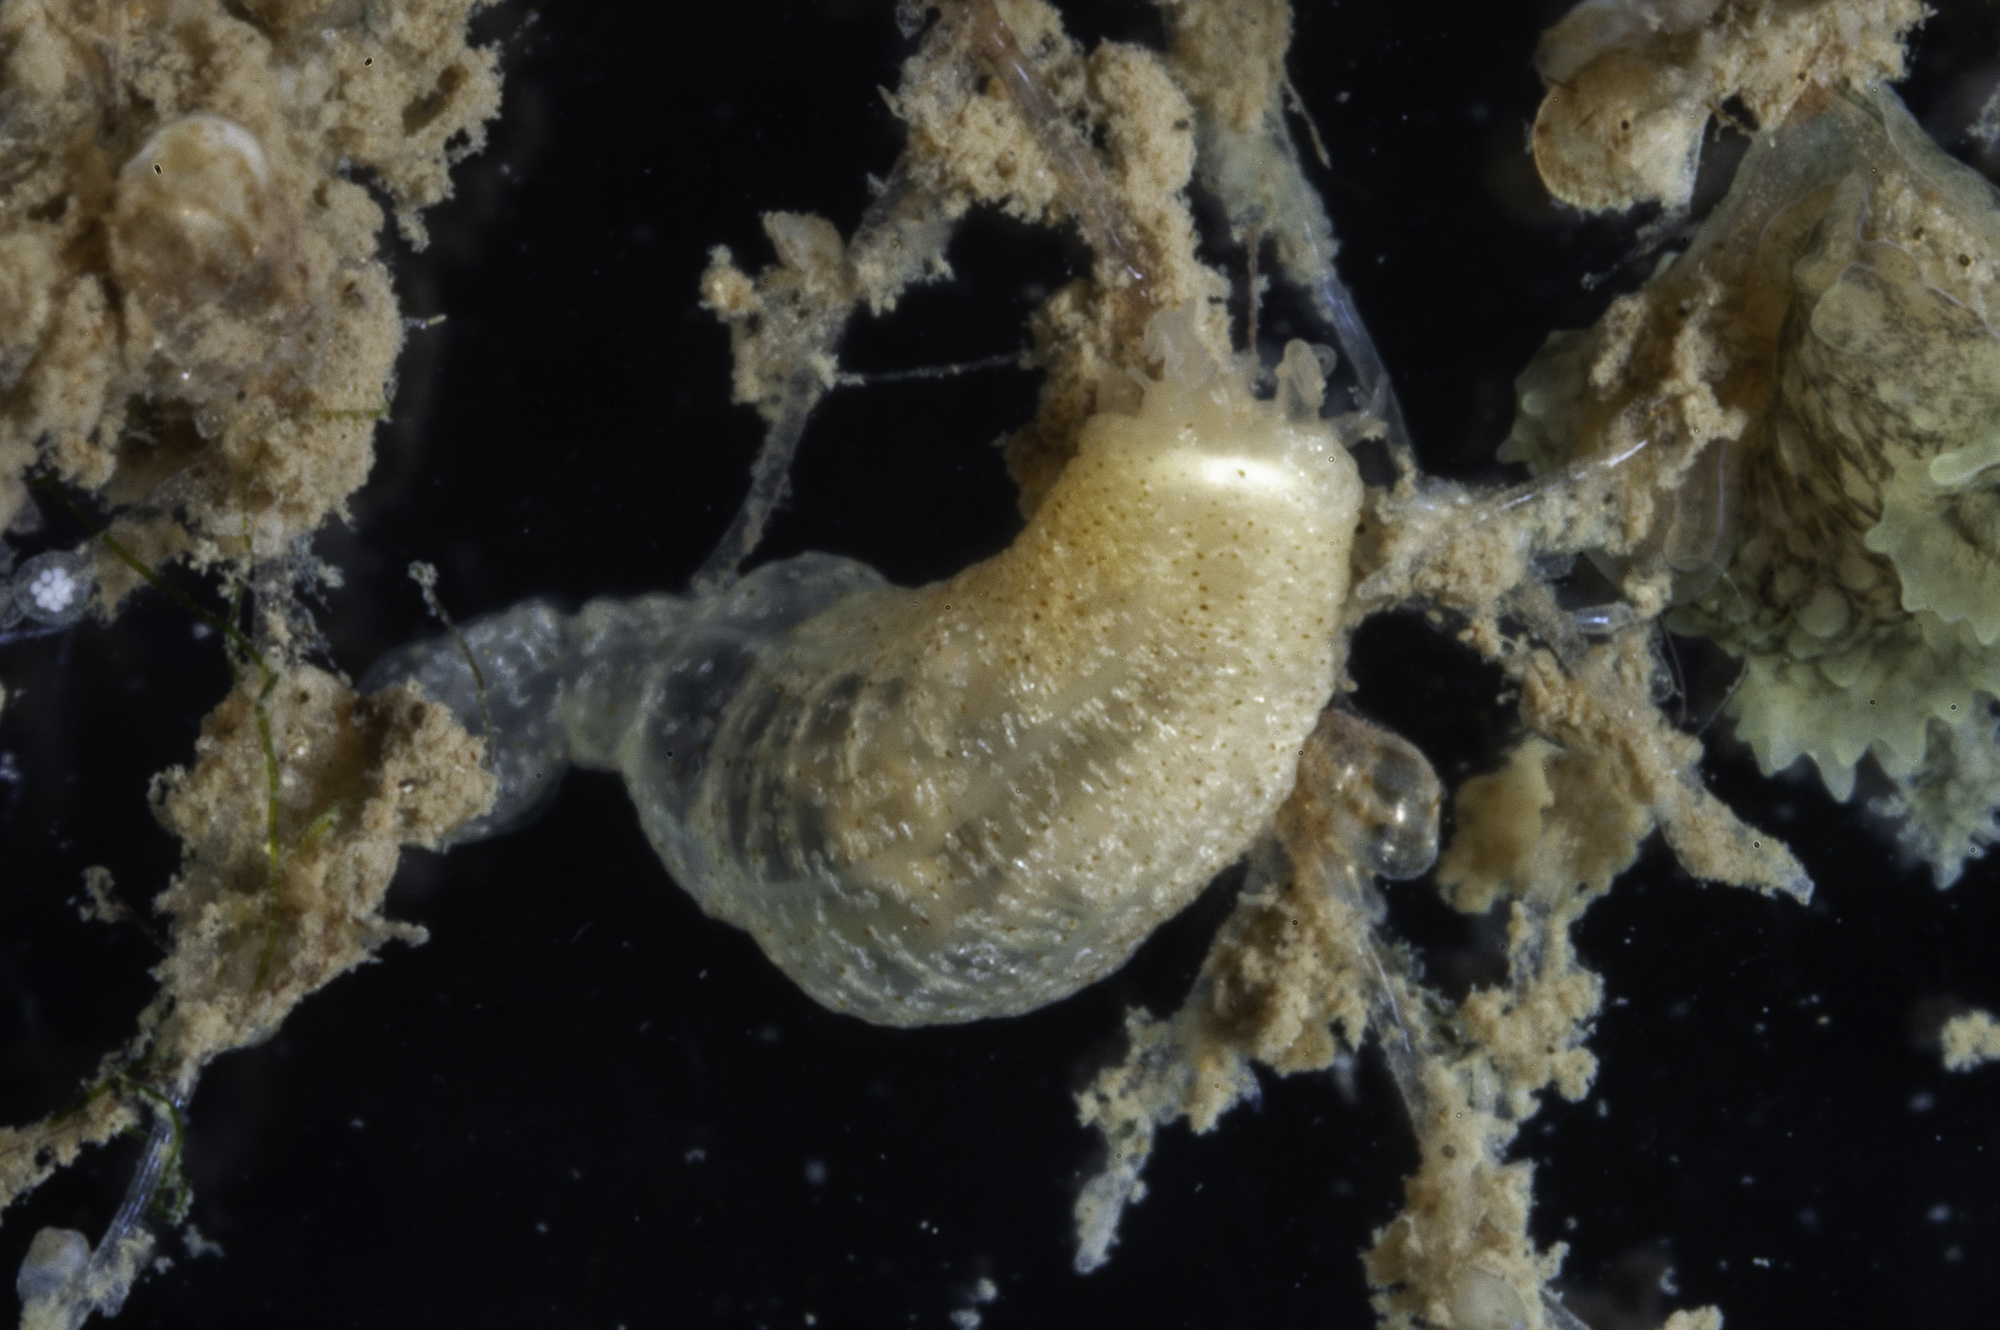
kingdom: Animalia
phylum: Echinodermata
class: Holothuroidea
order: Apodida
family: Synaptidae
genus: Labidoplax
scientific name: Labidoplax media
